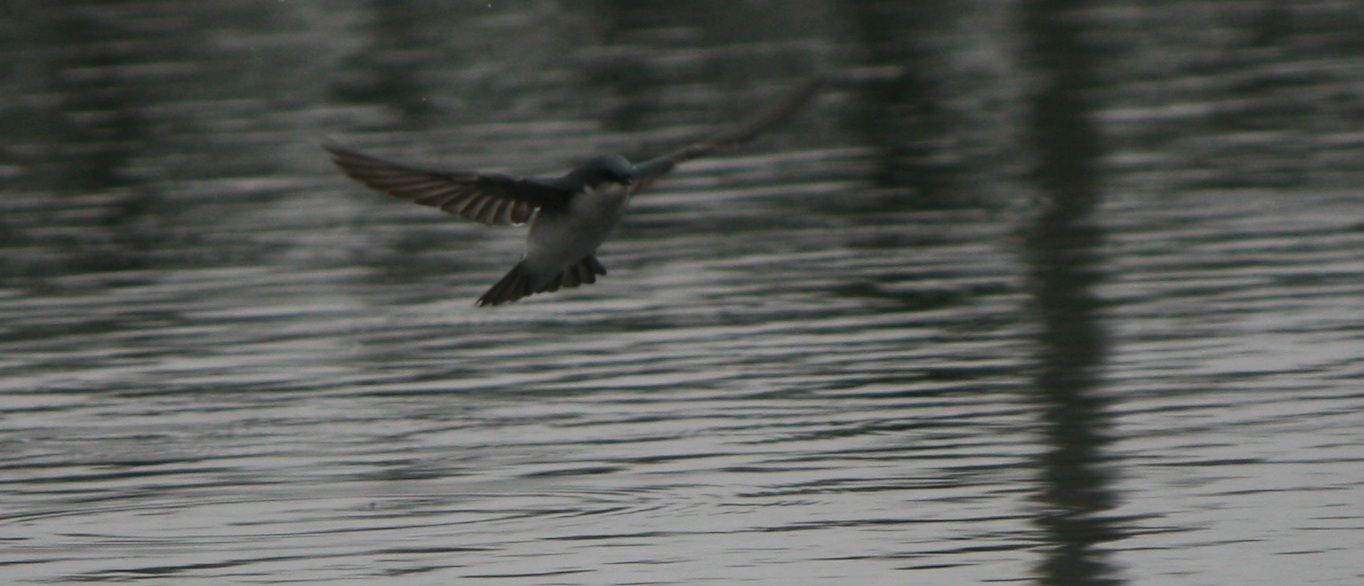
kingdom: Animalia
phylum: Chordata
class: Aves
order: Passeriformes
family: Hirundinidae
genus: Tachycineta
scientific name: Tachycineta bicolor
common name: Tree swallow
